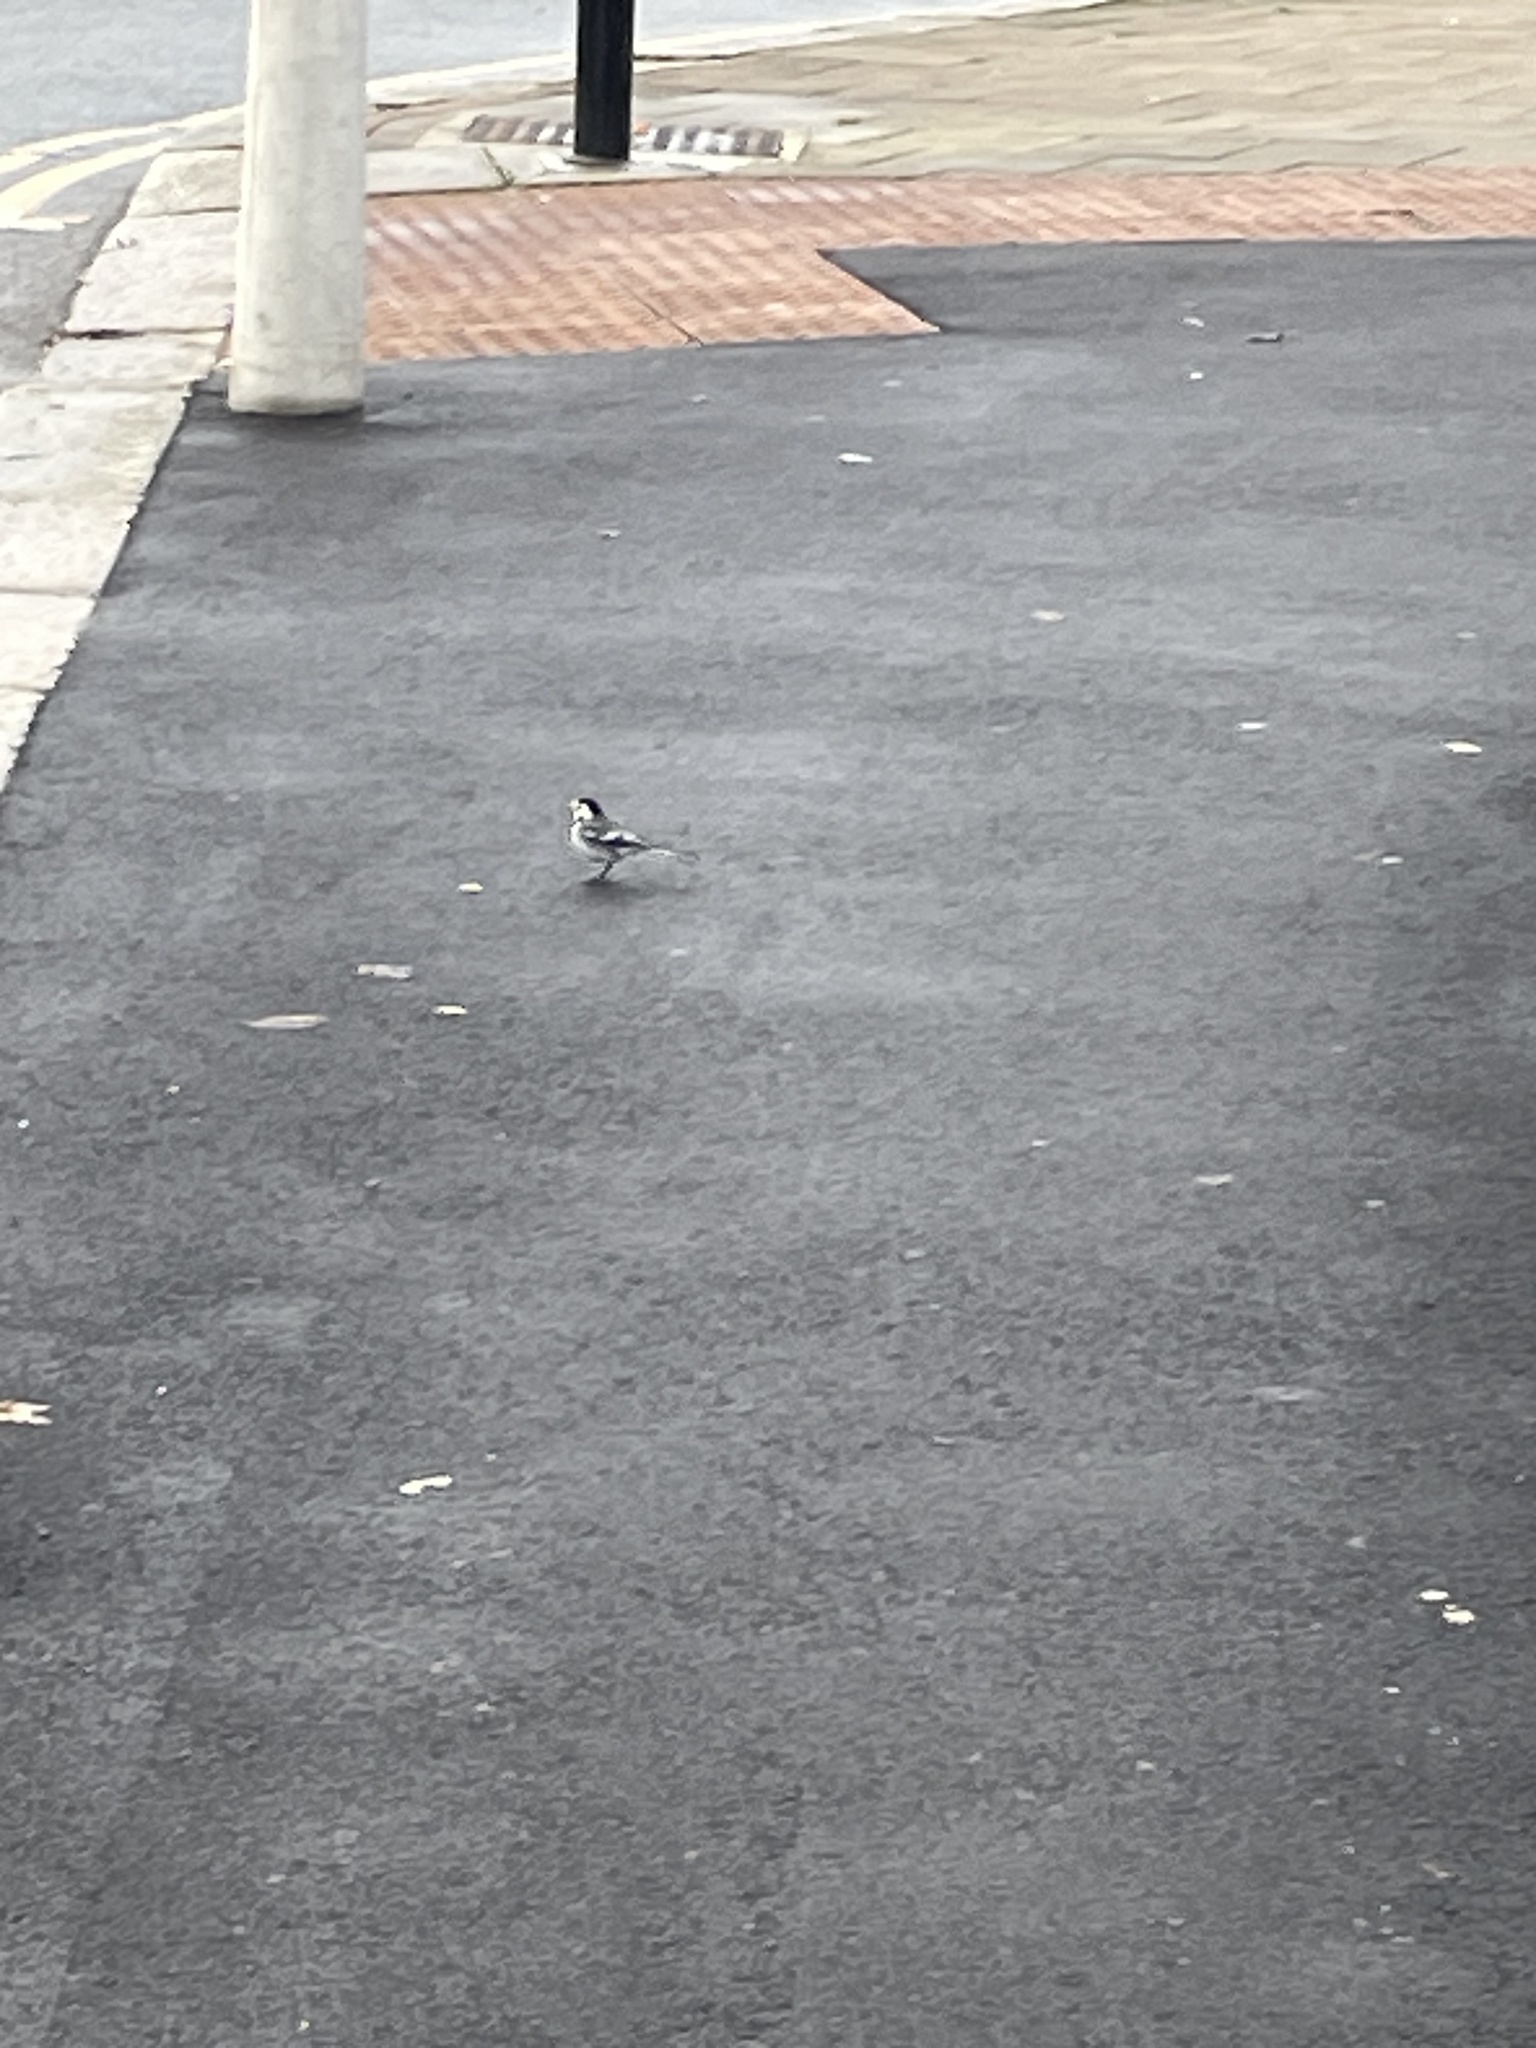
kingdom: Animalia
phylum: Chordata
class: Aves
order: Passeriformes
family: Motacillidae
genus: Motacilla
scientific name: Motacilla alba
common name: White wagtail
